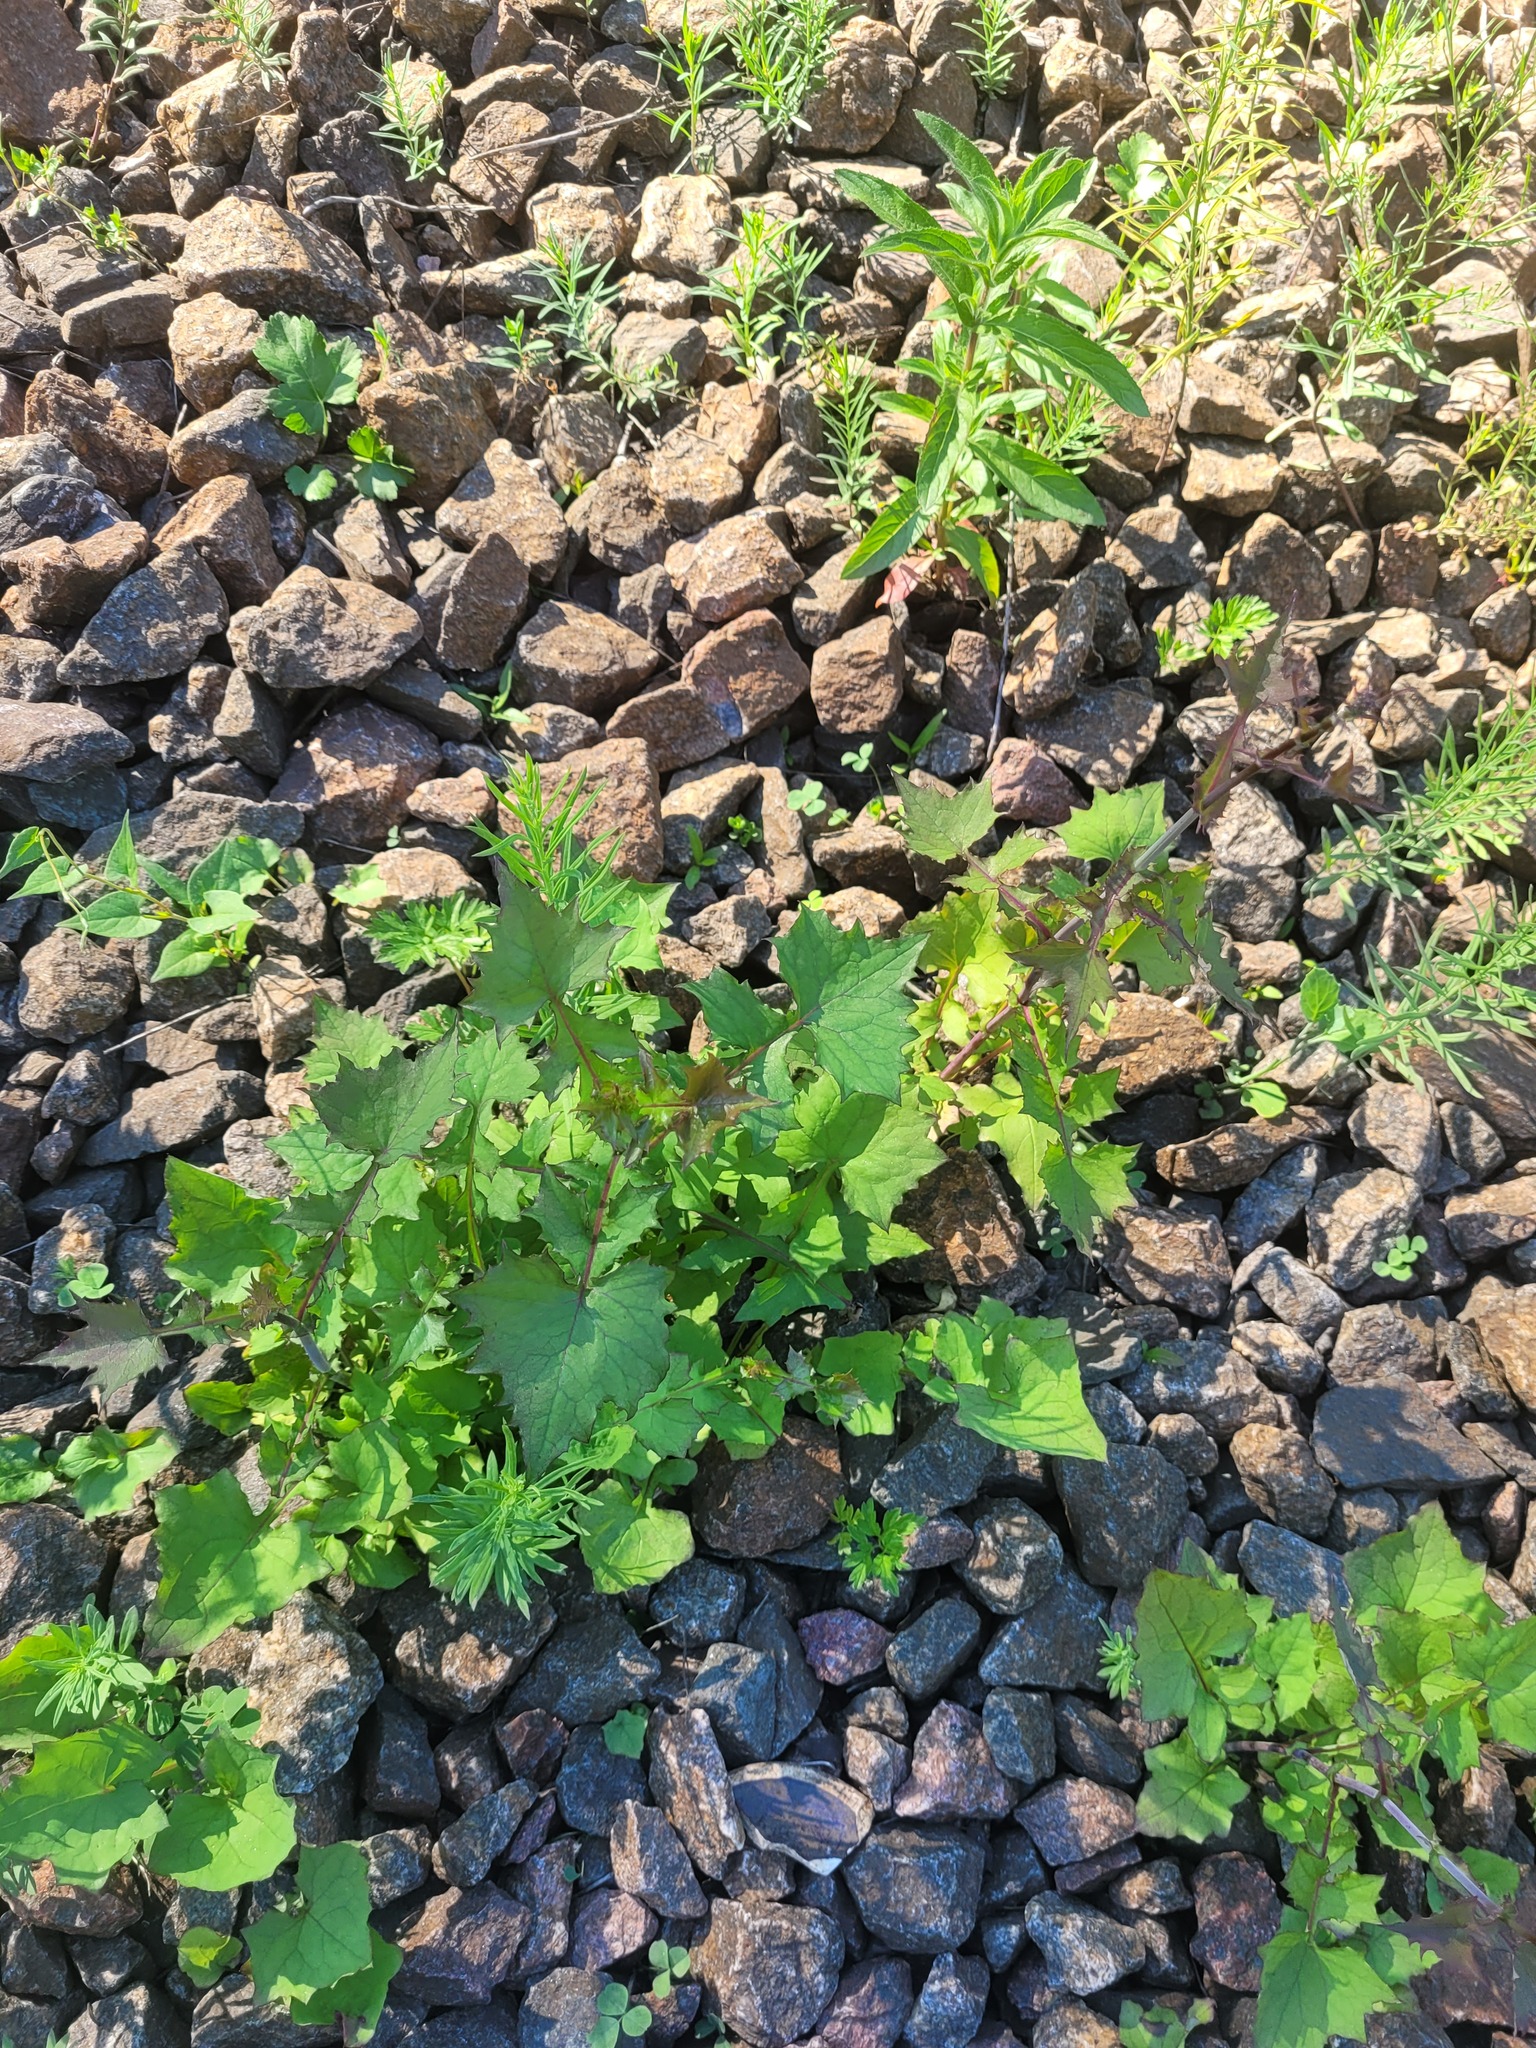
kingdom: Plantae
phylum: Tracheophyta
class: Magnoliopsida
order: Asterales
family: Asteraceae
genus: Mycelis
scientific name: Mycelis muralis
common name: Wall lettuce
